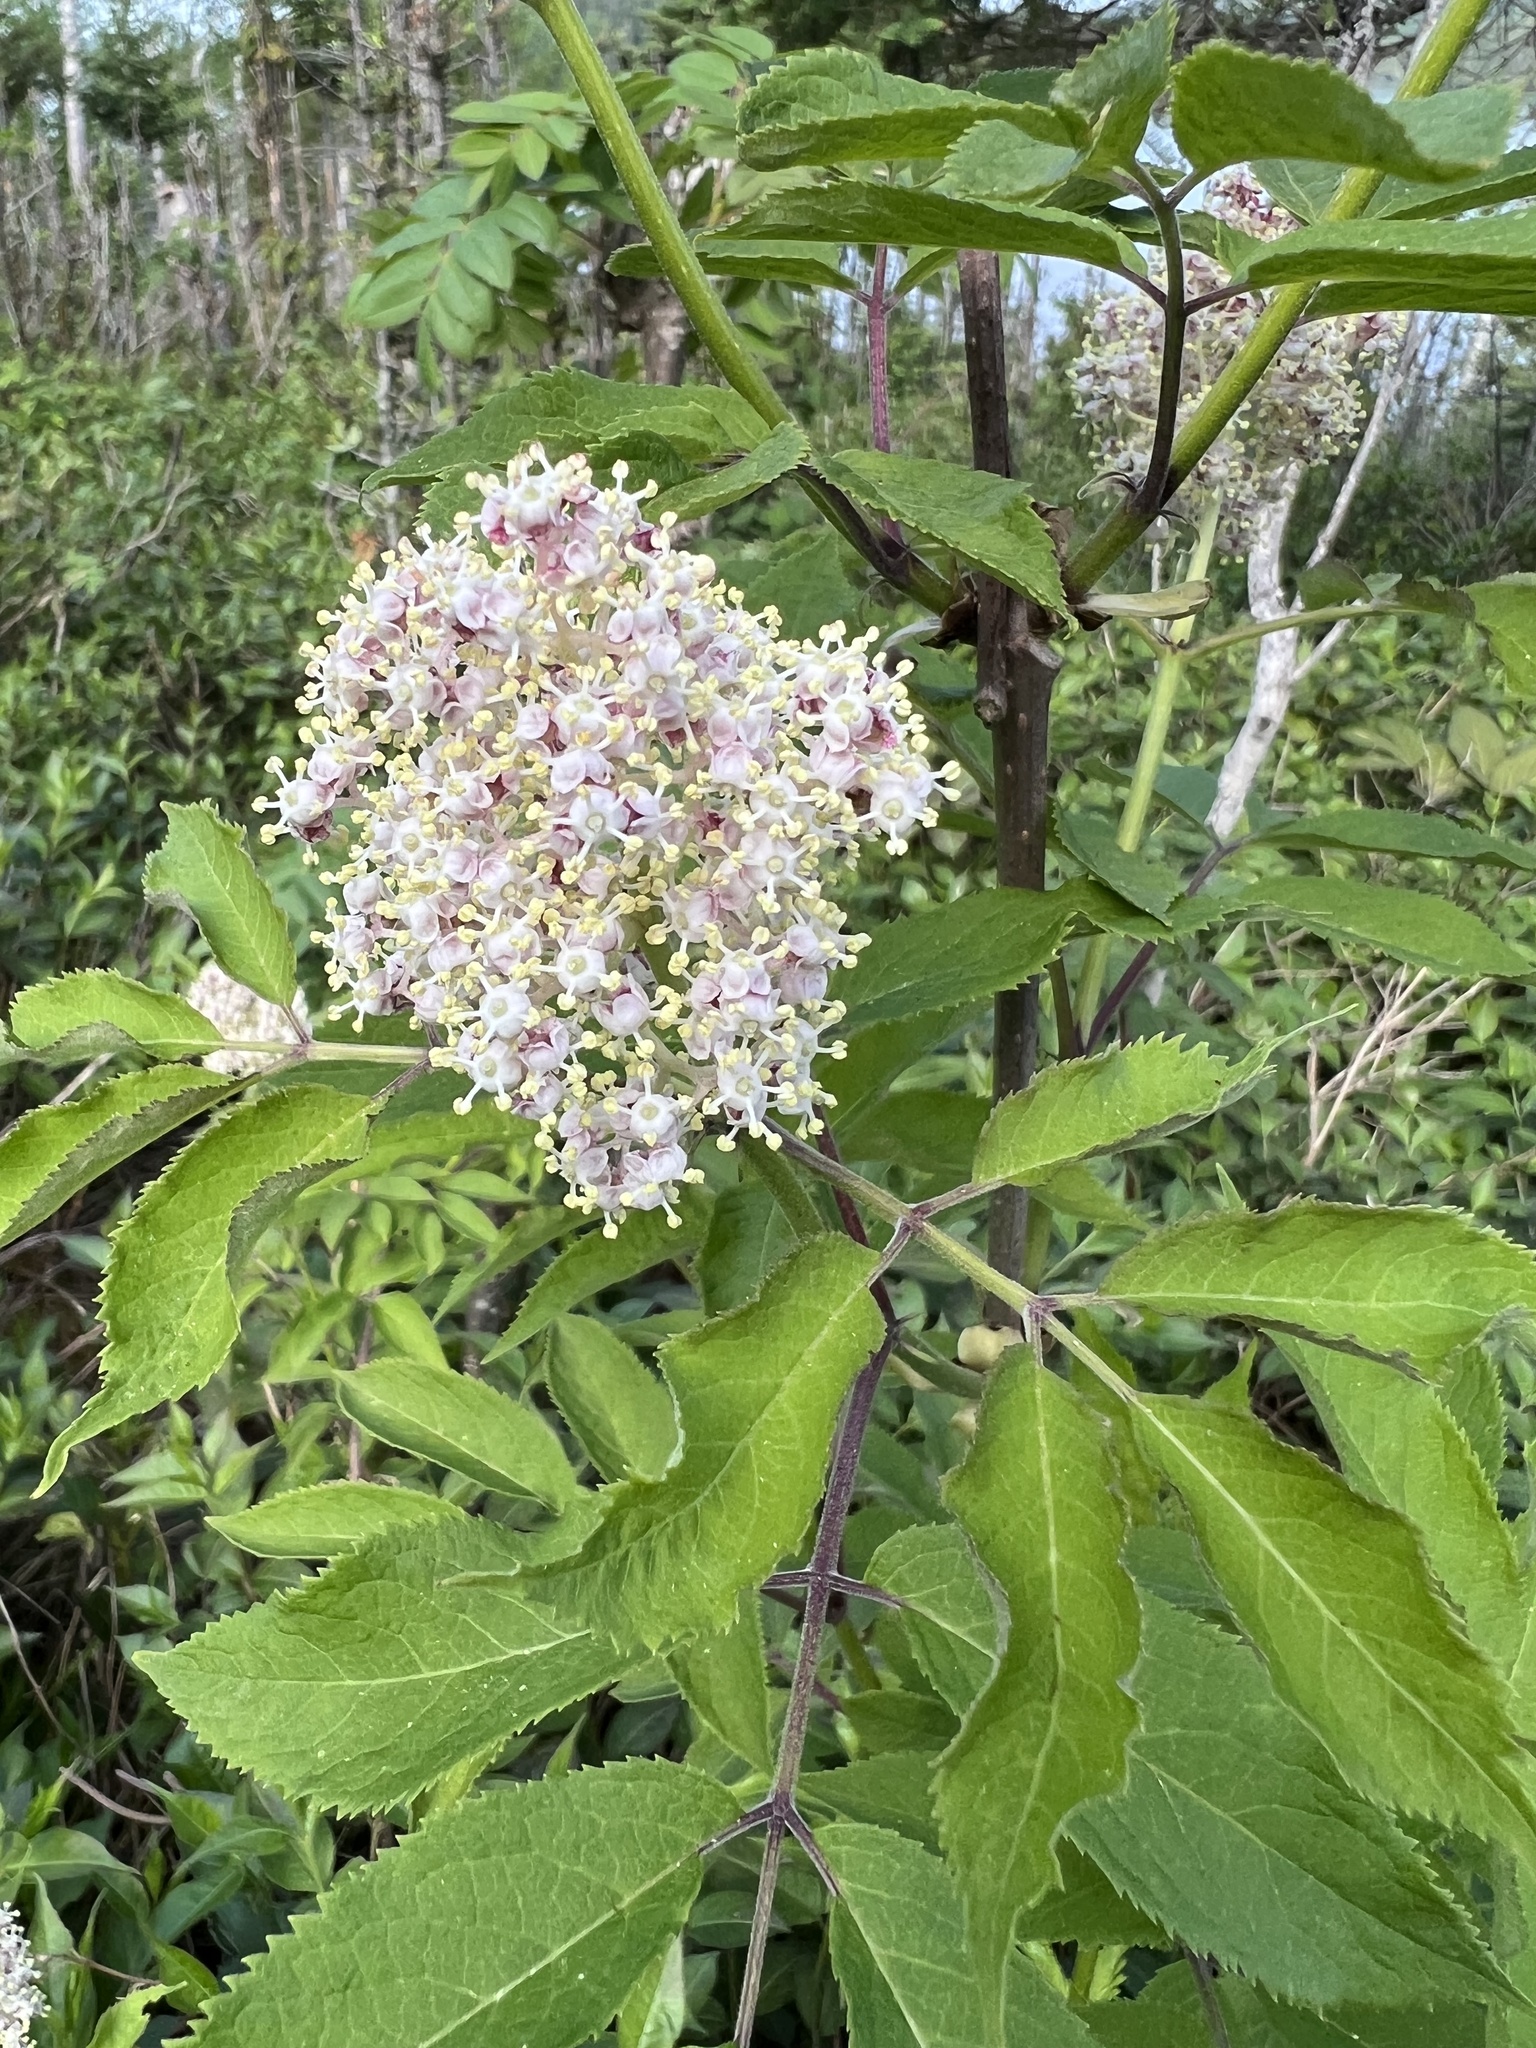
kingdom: Plantae
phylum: Tracheophyta
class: Magnoliopsida
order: Dipsacales
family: Viburnaceae
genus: Sambucus
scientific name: Sambucus racemosa
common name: Red-berried elder
